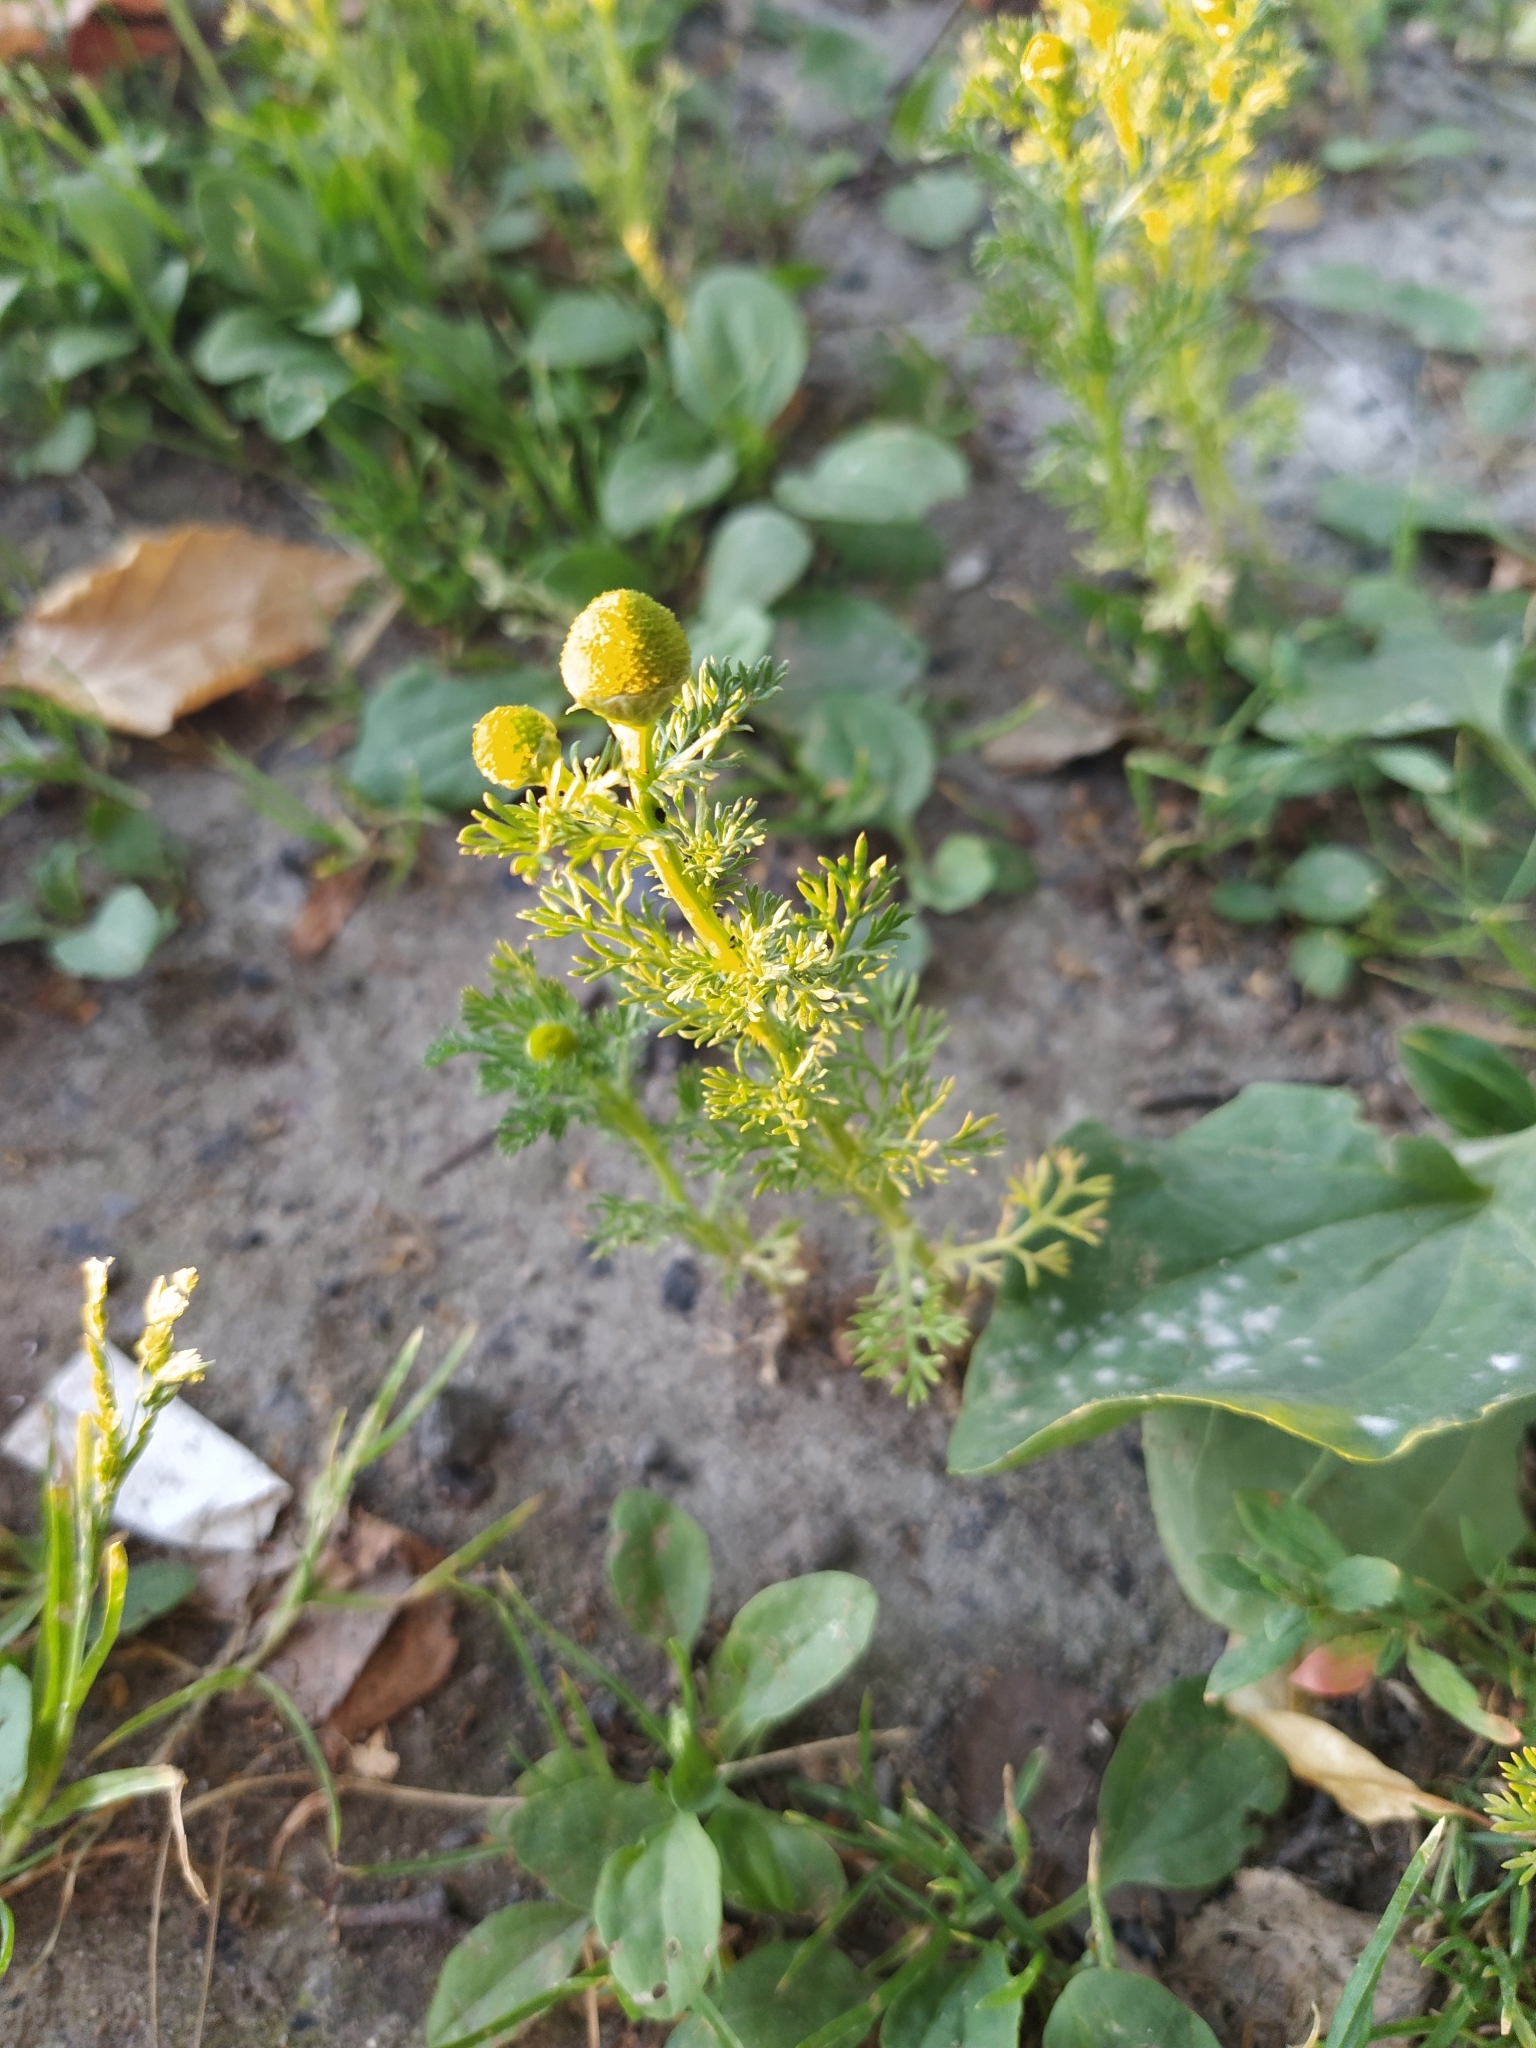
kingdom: Plantae
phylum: Tracheophyta
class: Magnoliopsida
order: Asterales
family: Asteraceae
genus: Matricaria
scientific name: Matricaria discoidea
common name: Disc mayweed
